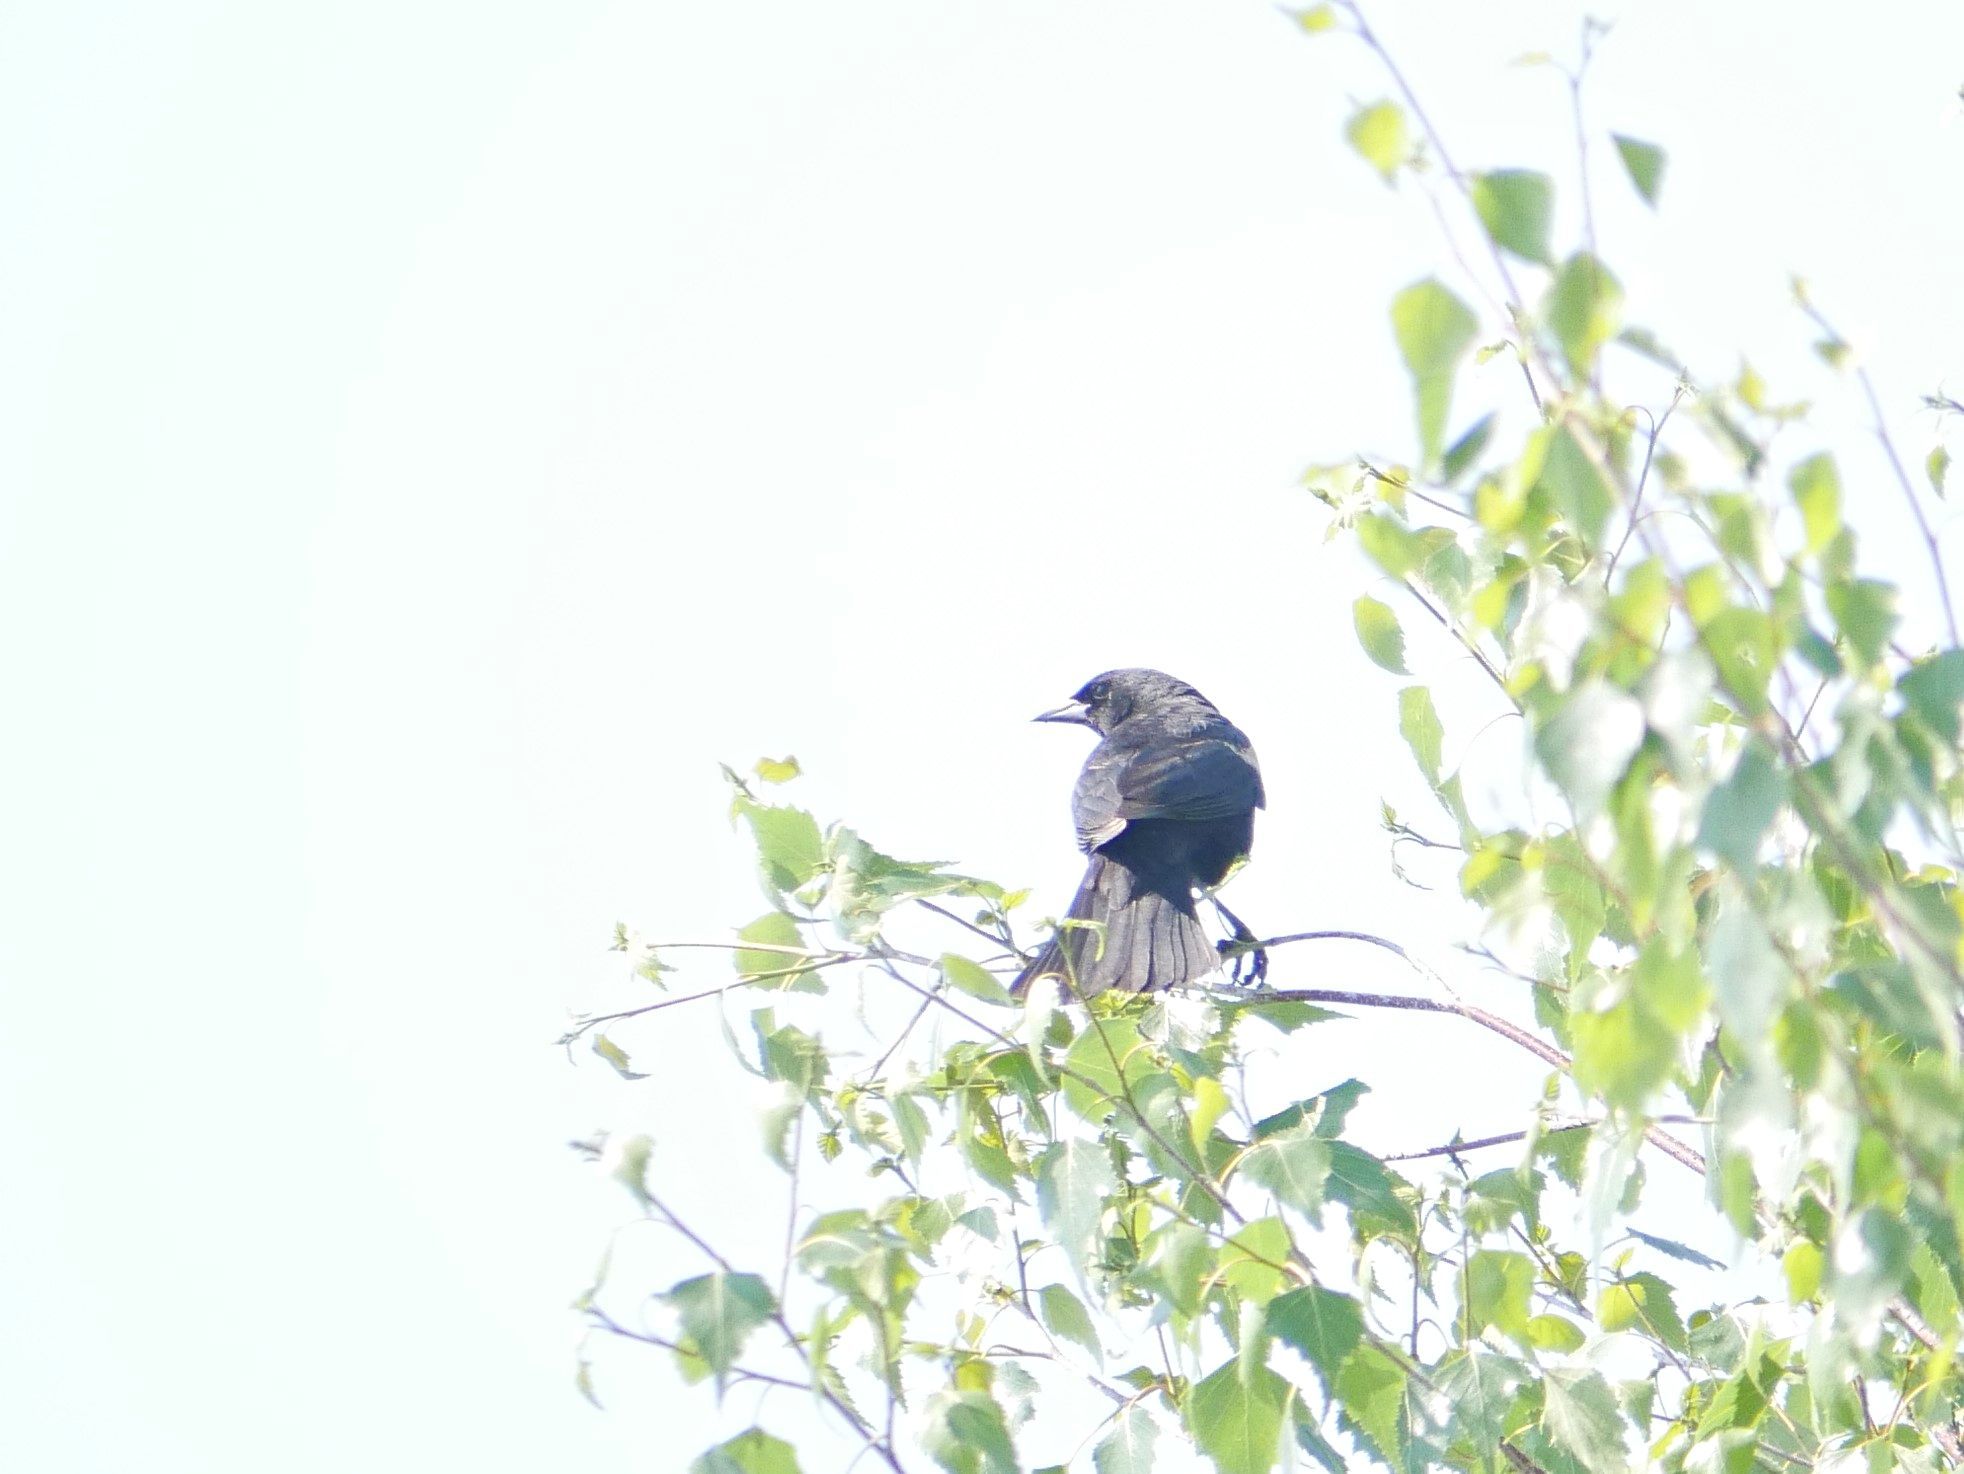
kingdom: Animalia
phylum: Chordata
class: Aves
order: Passeriformes
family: Icteridae
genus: Agelaius
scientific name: Agelaius phoeniceus
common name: Red-winged blackbird
